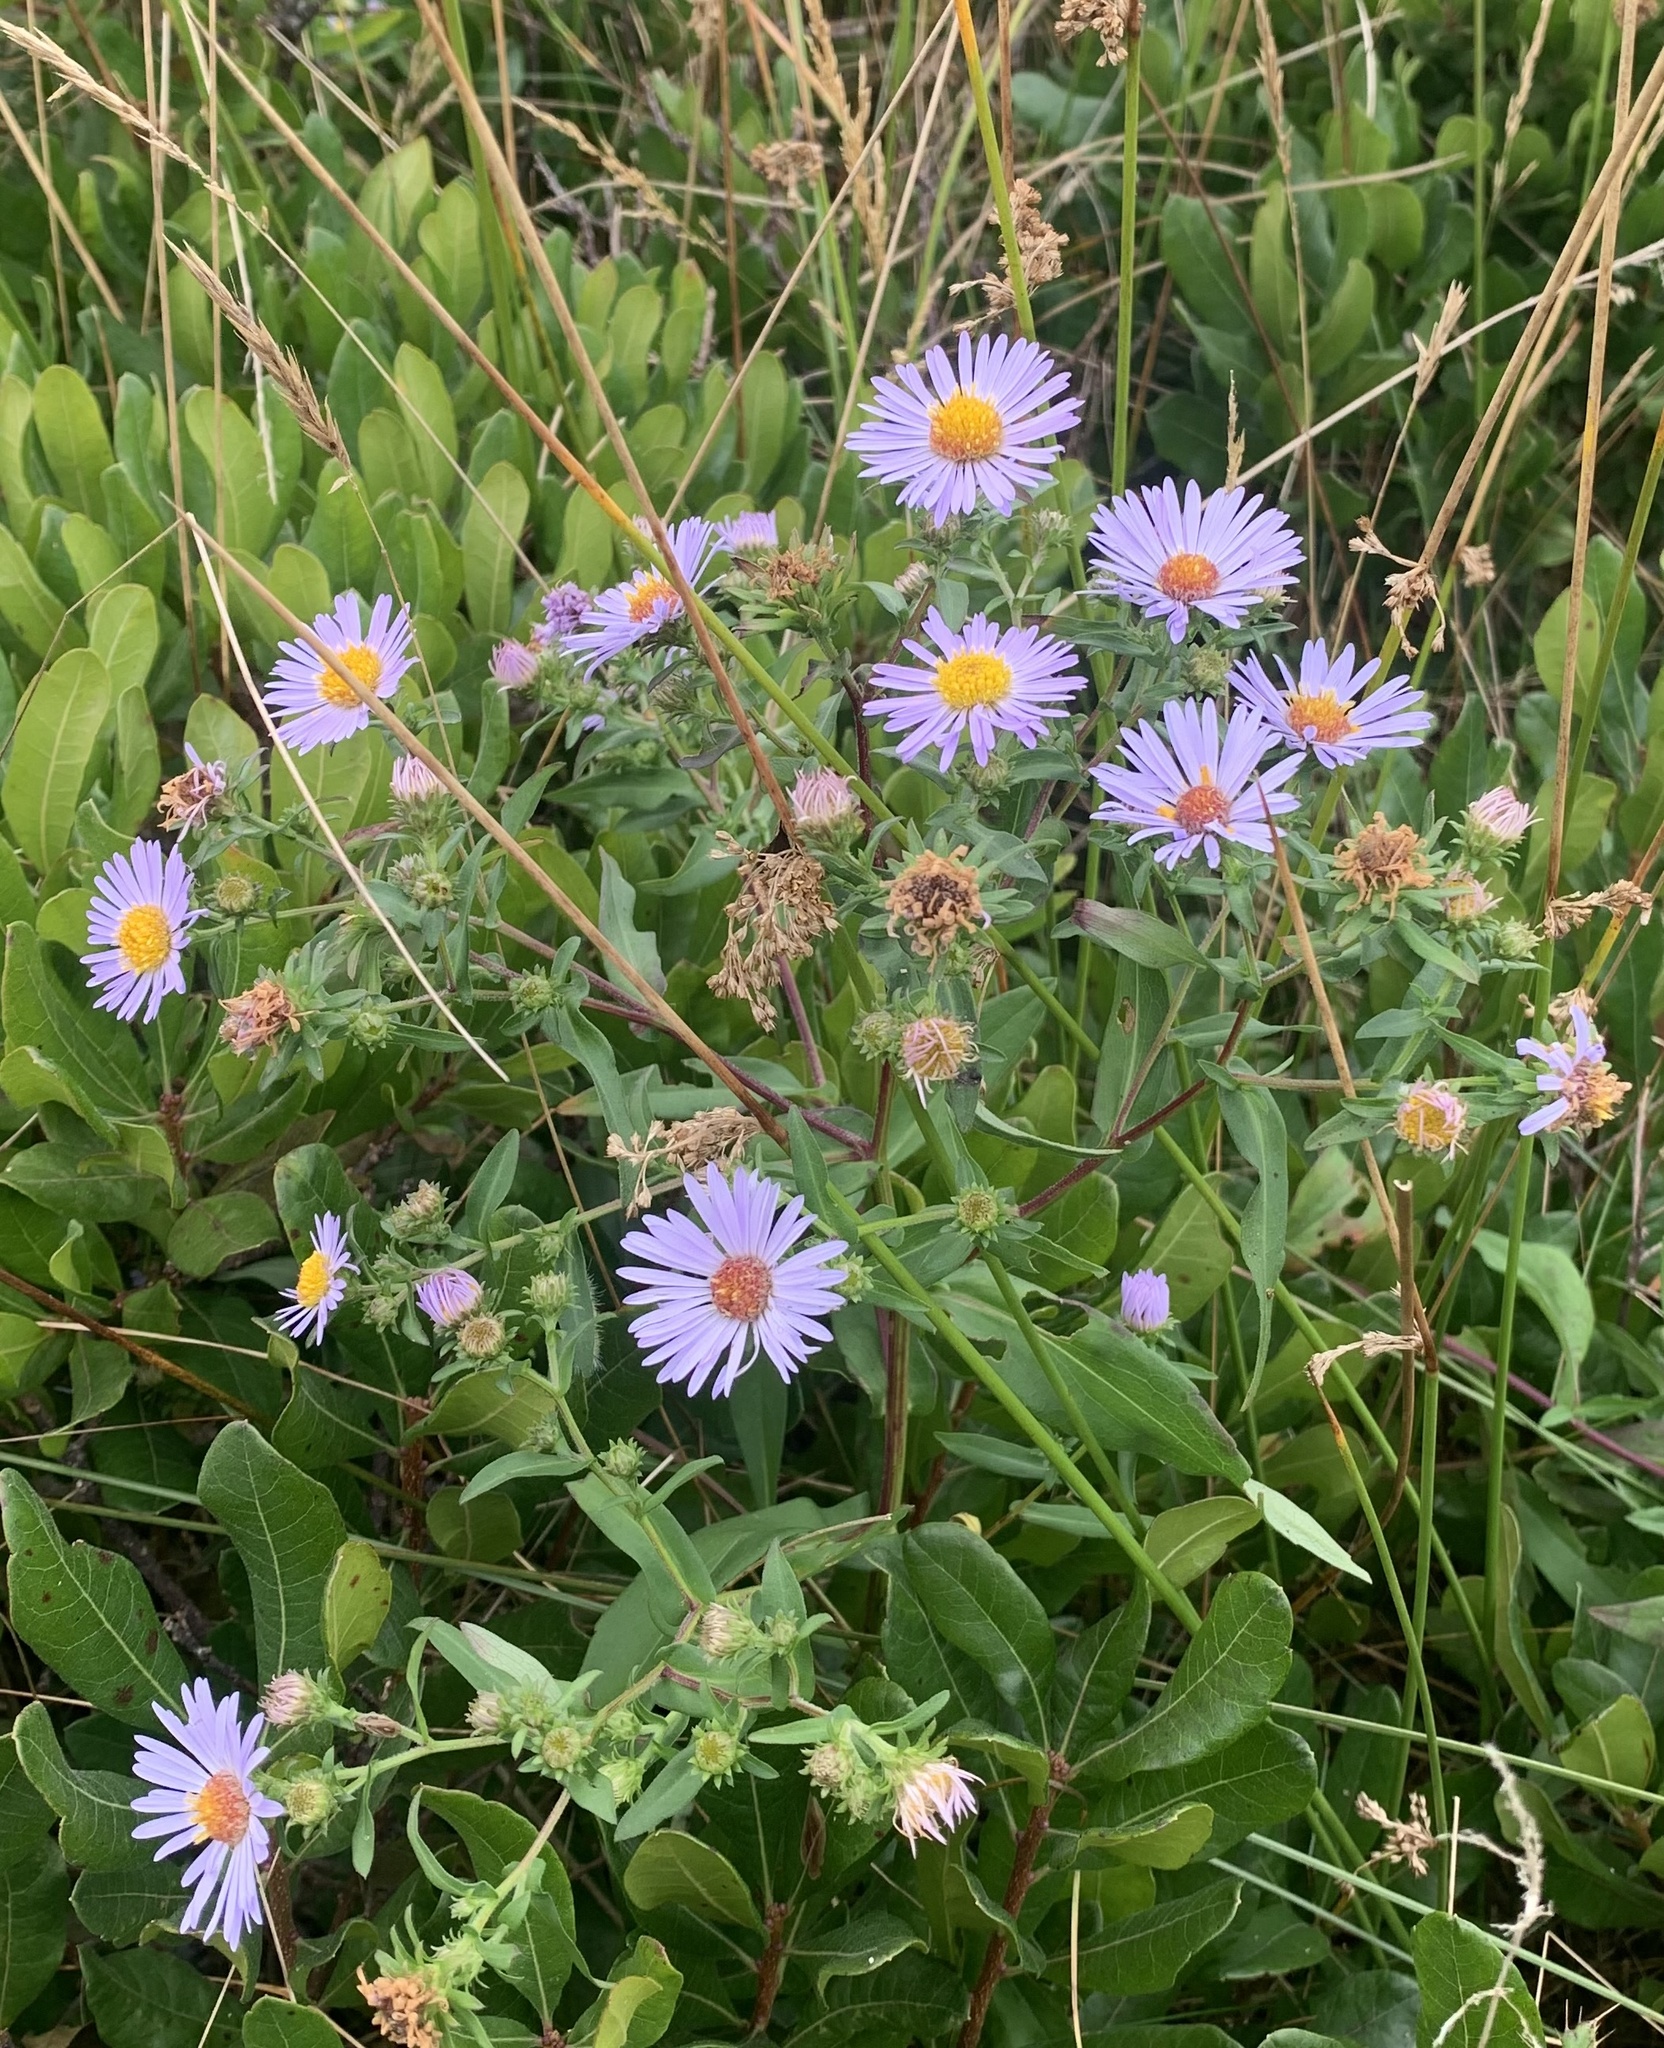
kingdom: Plantae
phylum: Tracheophyta
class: Magnoliopsida
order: Asterales
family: Asteraceae
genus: Symphyotrichum
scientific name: Symphyotrichum novi-belgii
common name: Michaelmas daisy
